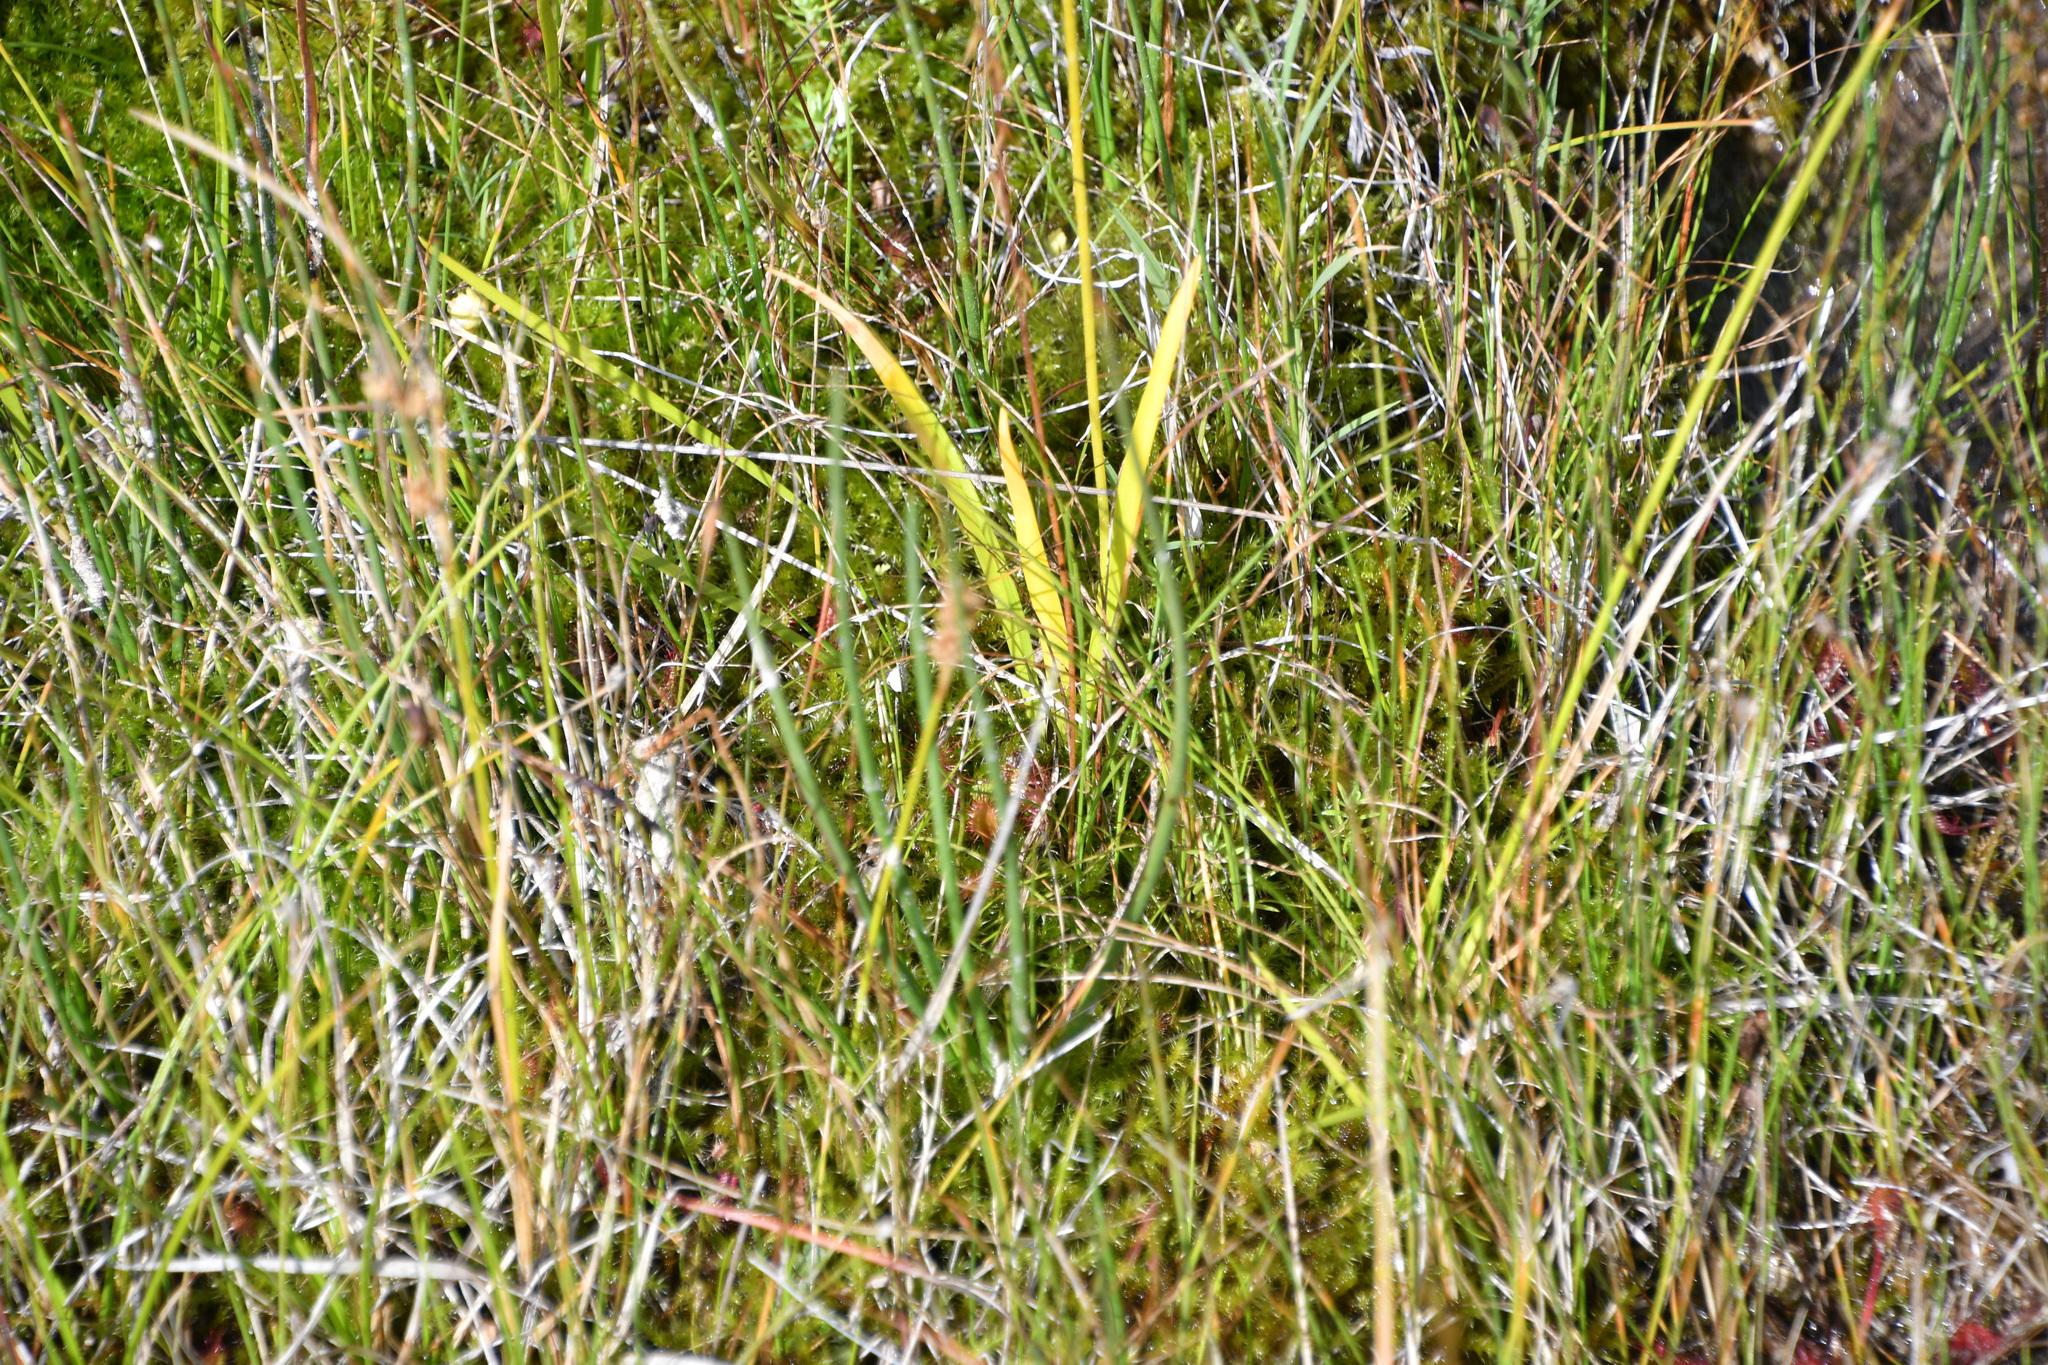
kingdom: Plantae
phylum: Tracheophyta
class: Liliopsida
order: Alismatales
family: Tofieldiaceae
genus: Triantha
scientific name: Triantha glutinosa
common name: Glutinous tofieldia
